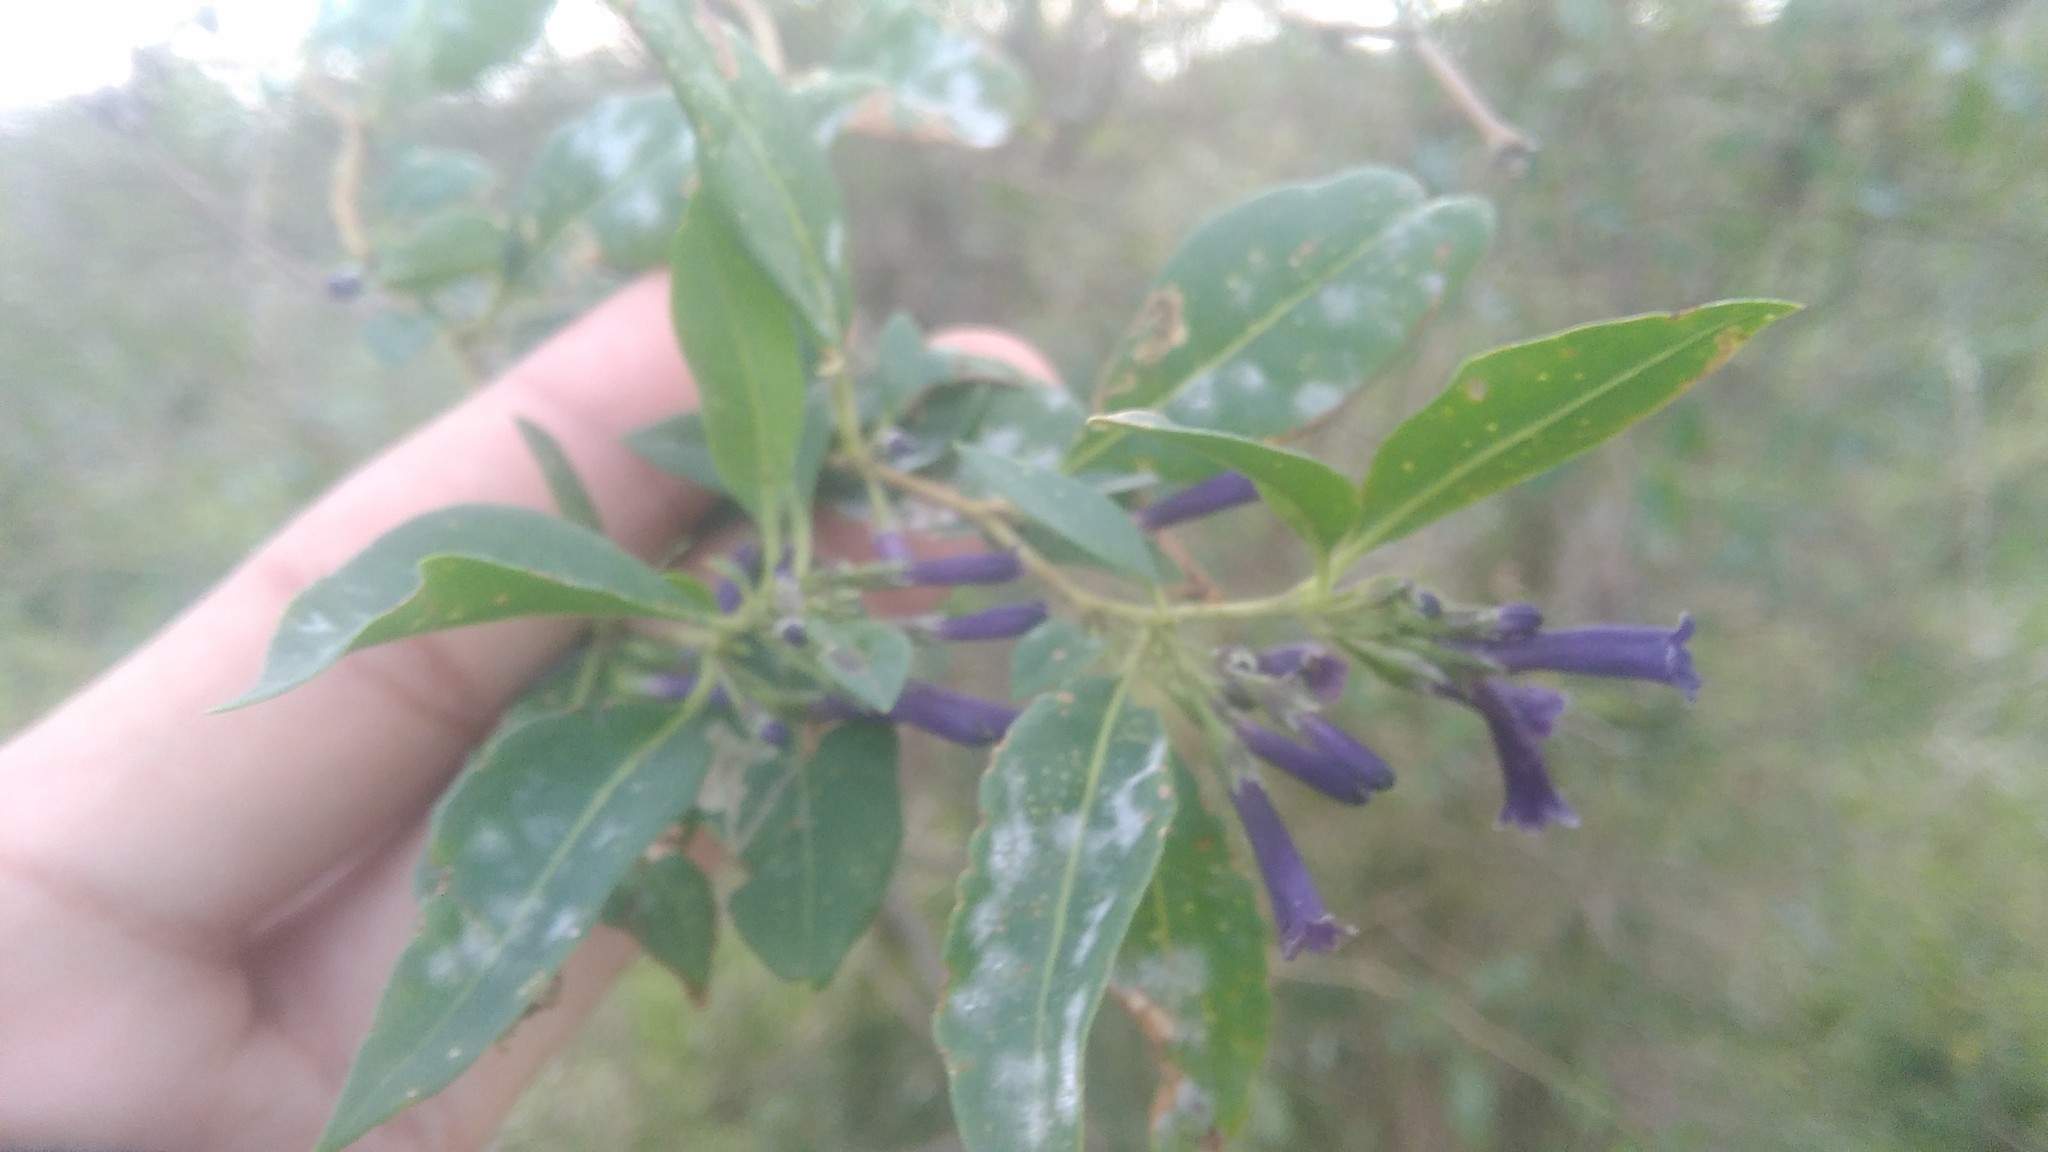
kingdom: Plantae
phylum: Tracheophyta
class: Magnoliopsida
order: Solanales
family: Solanaceae
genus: Lycium
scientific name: Lycium cestroides
